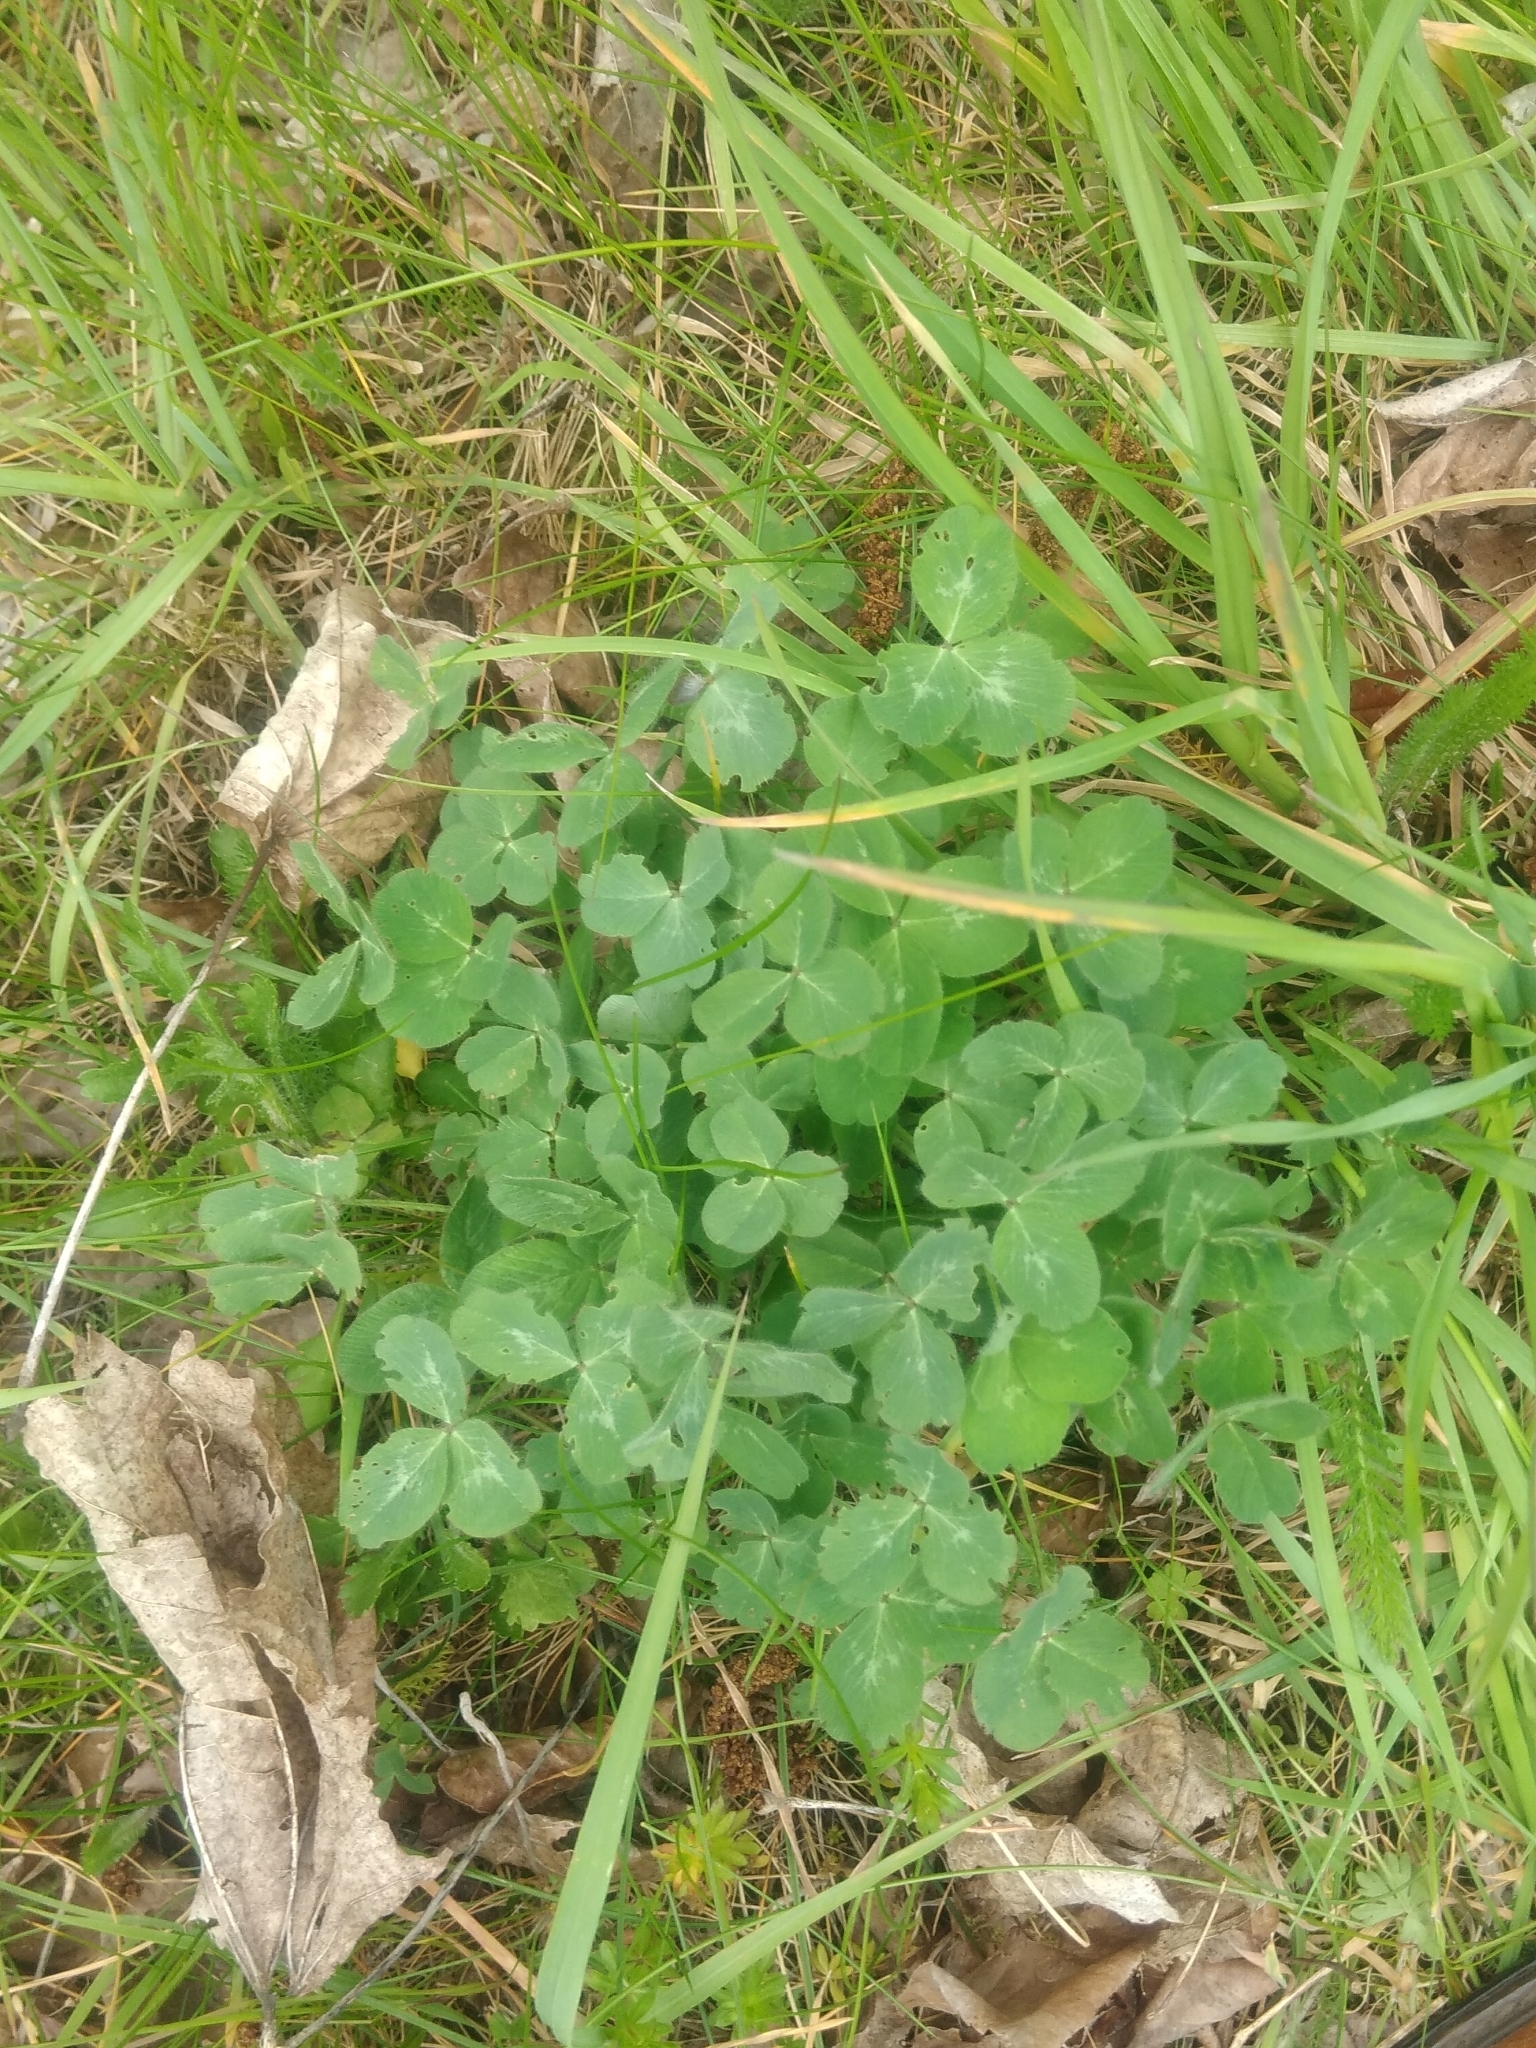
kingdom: Plantae
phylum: Tracheophyta
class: Magnoliopsida
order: Fabales
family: Fabaceae
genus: Trifolium
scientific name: Trifolium pratense
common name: Red clover
